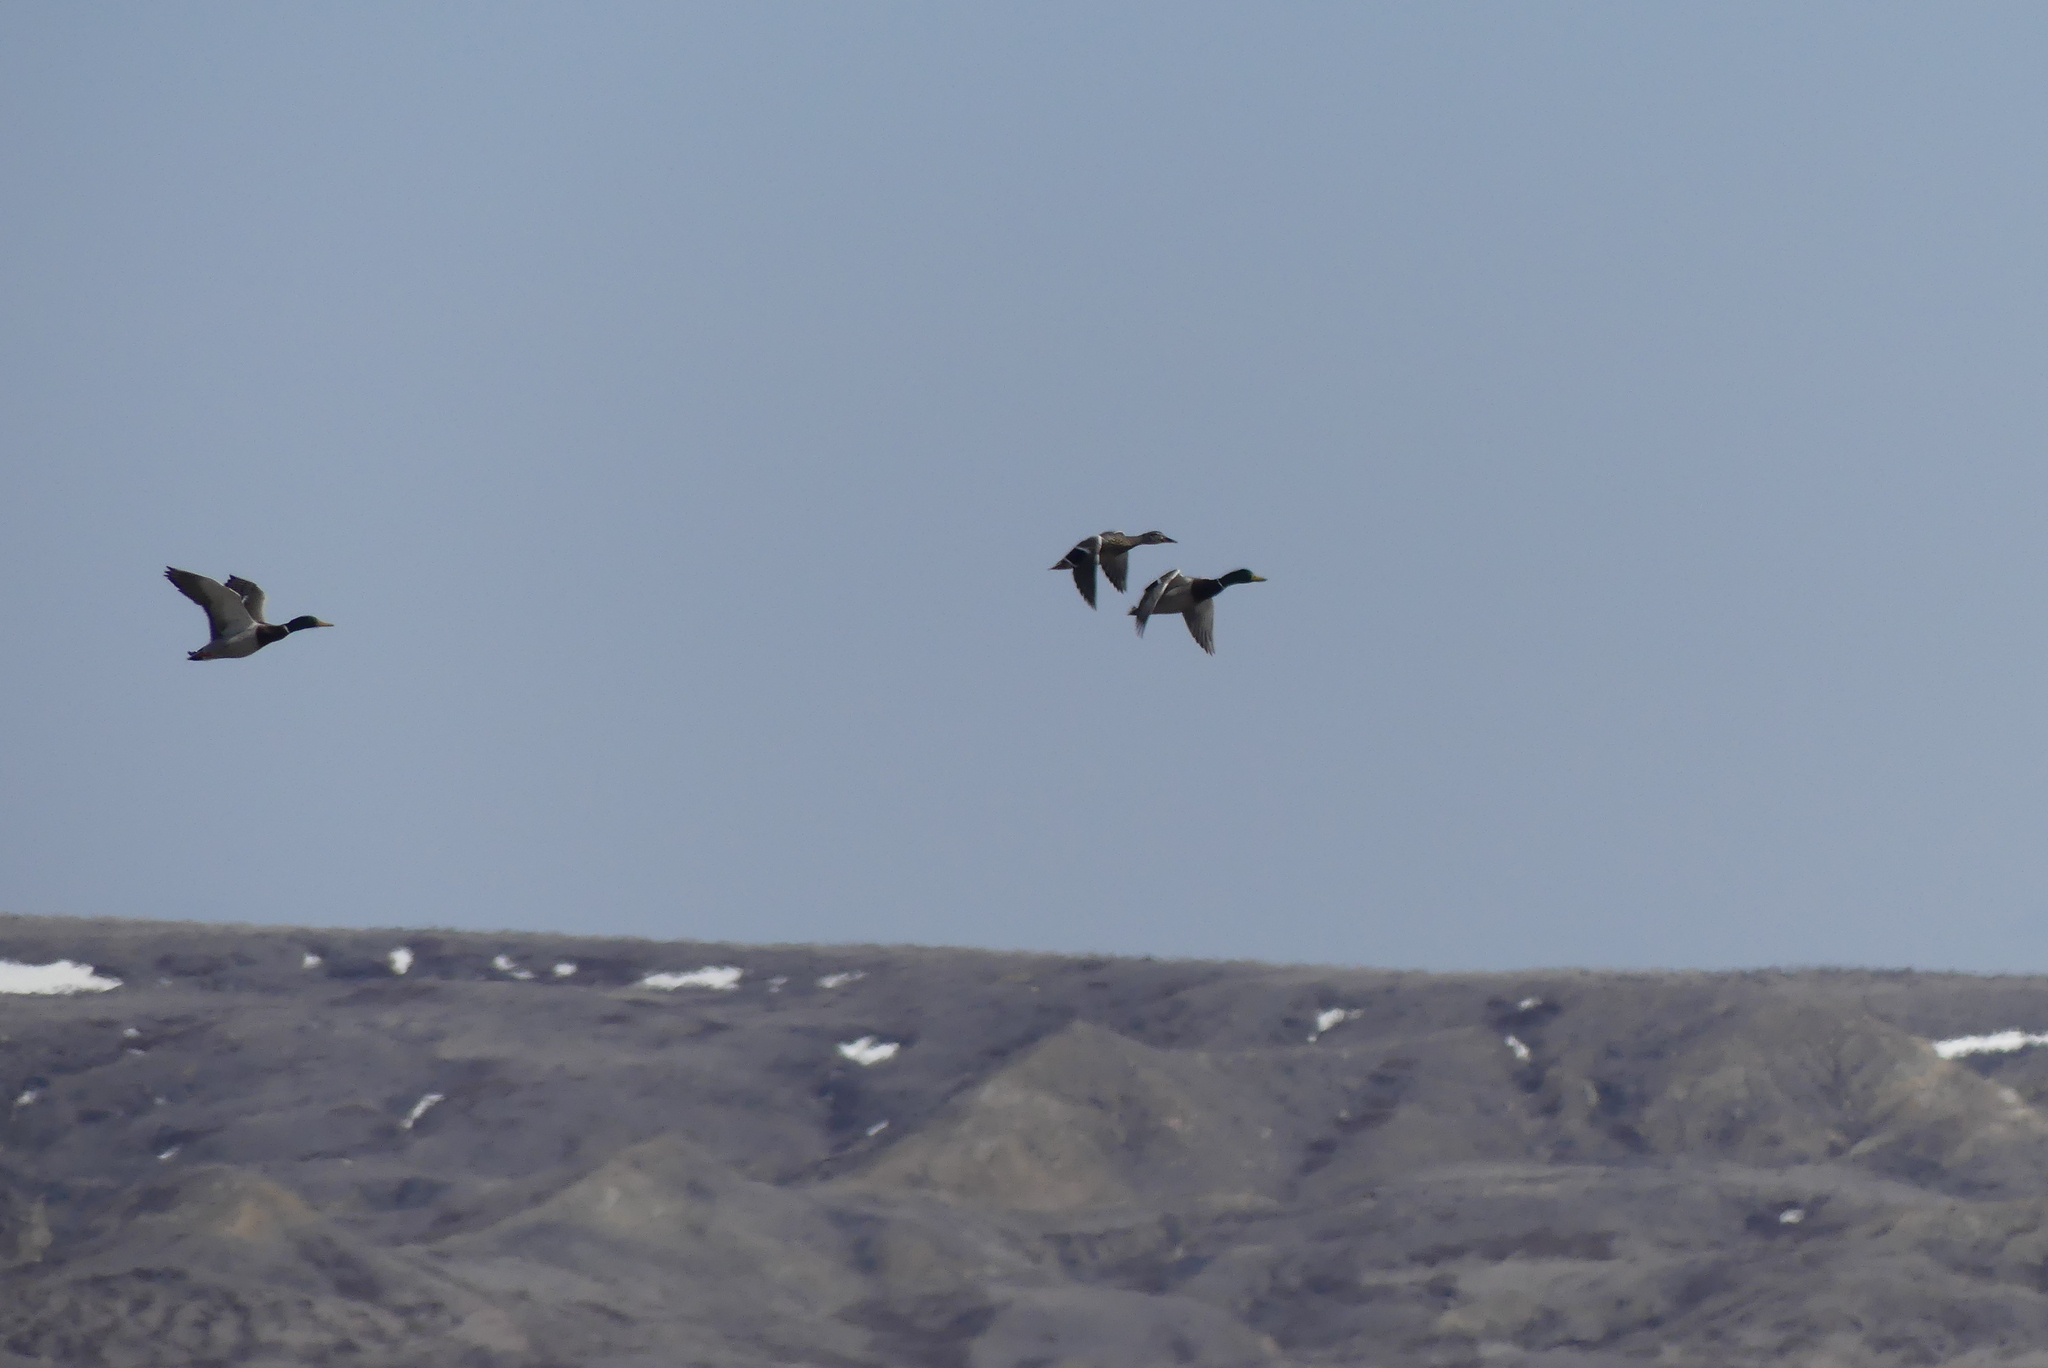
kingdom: Animalia
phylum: Chordata
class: Aves
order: Anseriformes
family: Anatidae
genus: Anas
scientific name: Anas platyrhynchos
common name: Mallard
